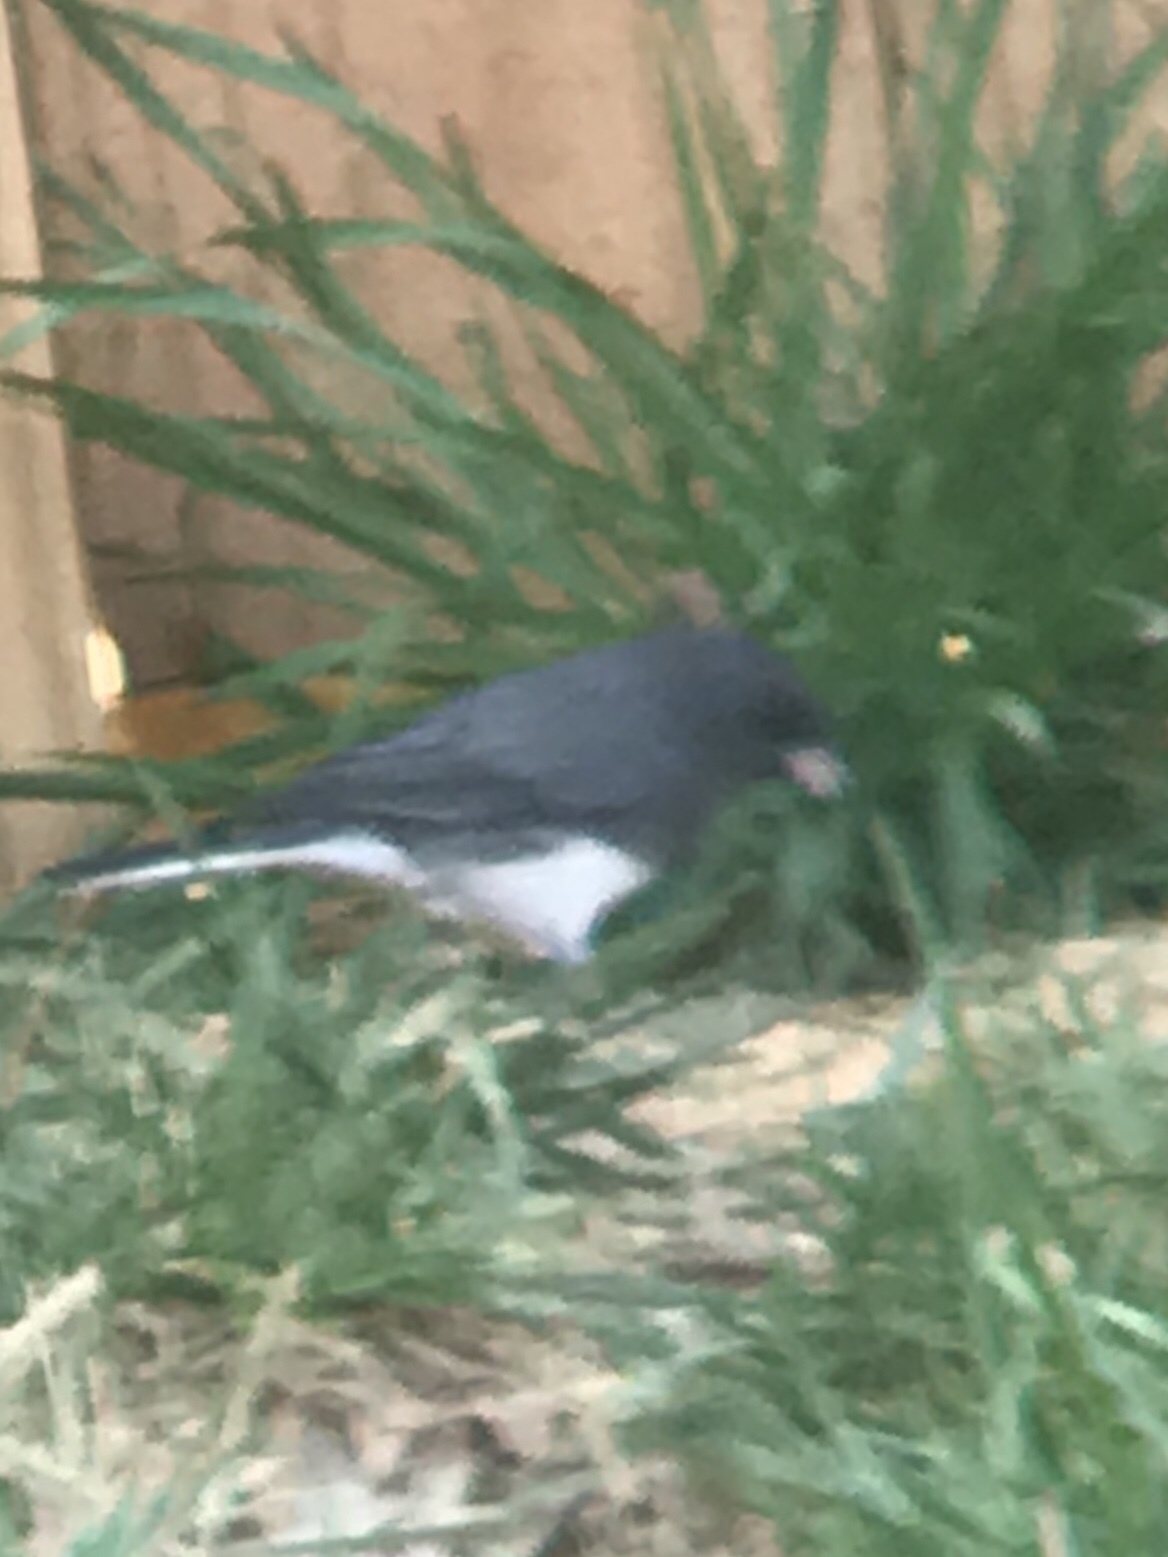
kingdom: Animalia
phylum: Chordata
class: Aves
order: Passeriformes
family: Passerellidae
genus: Junco
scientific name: Junco hyemalis
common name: Dark-eyed junco
